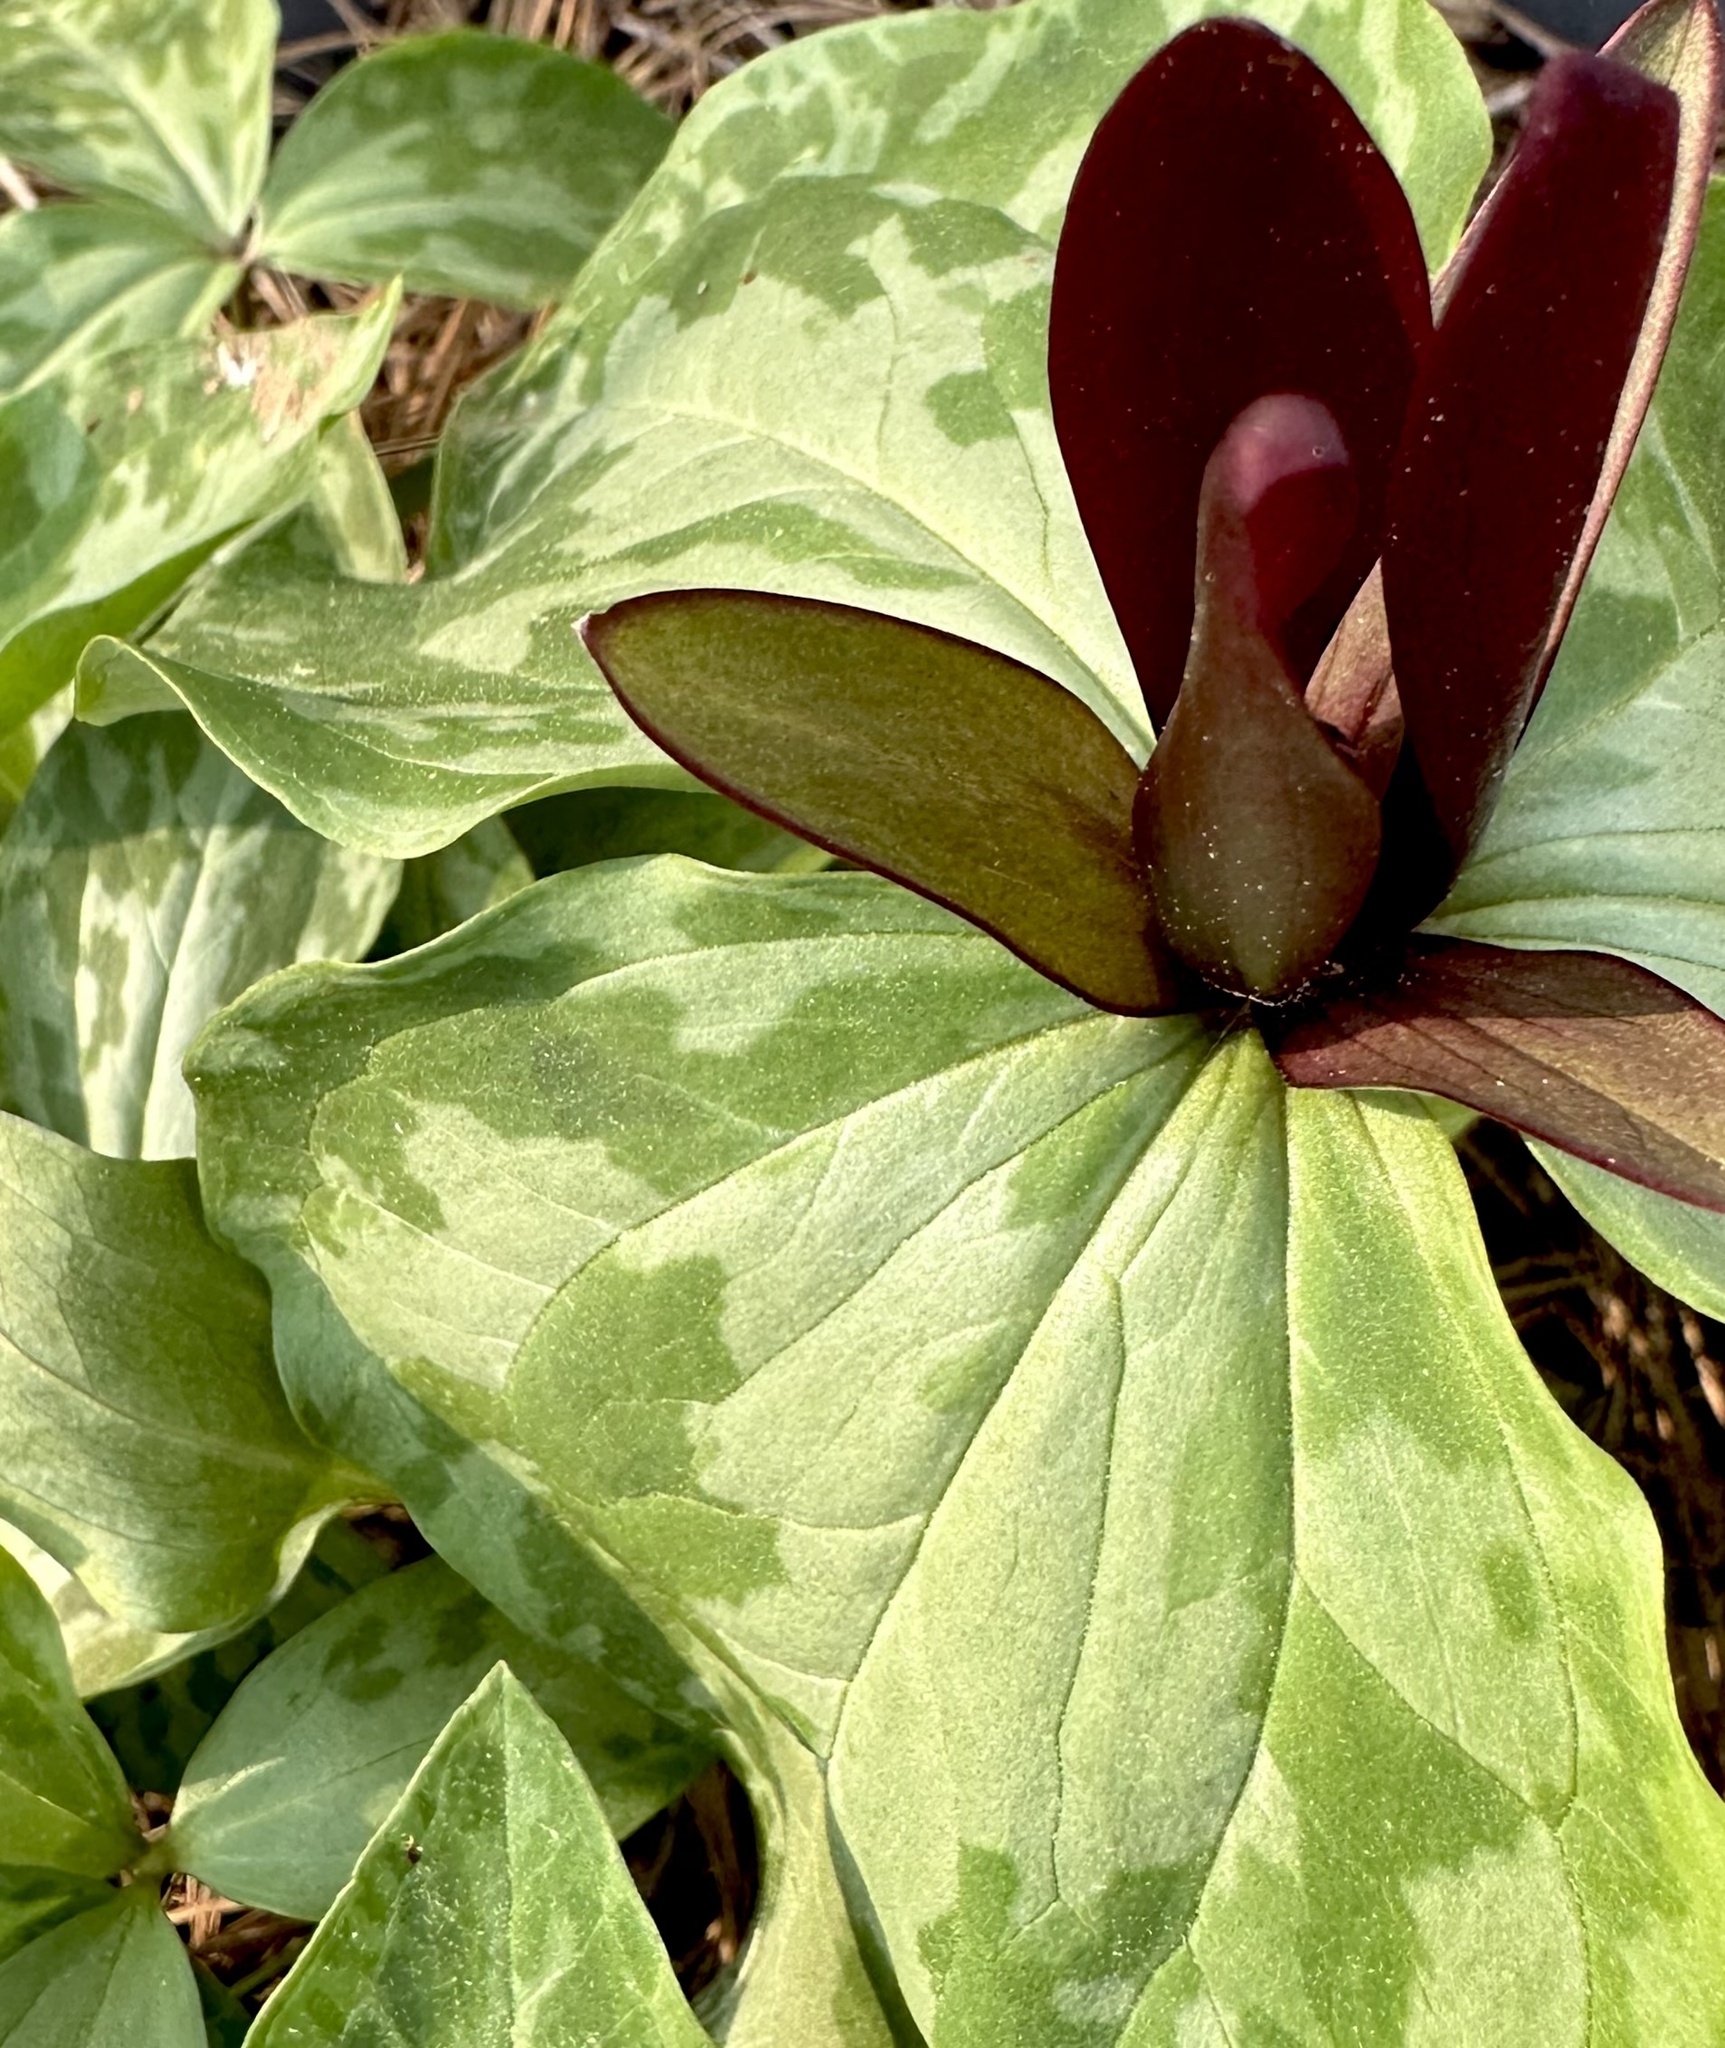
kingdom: Plantae
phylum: Tracheophyta
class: Liliopsida
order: Liliales
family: Melanthiaceae
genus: Trillium
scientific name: Trillium cuneatum
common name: Cuneate trillium
